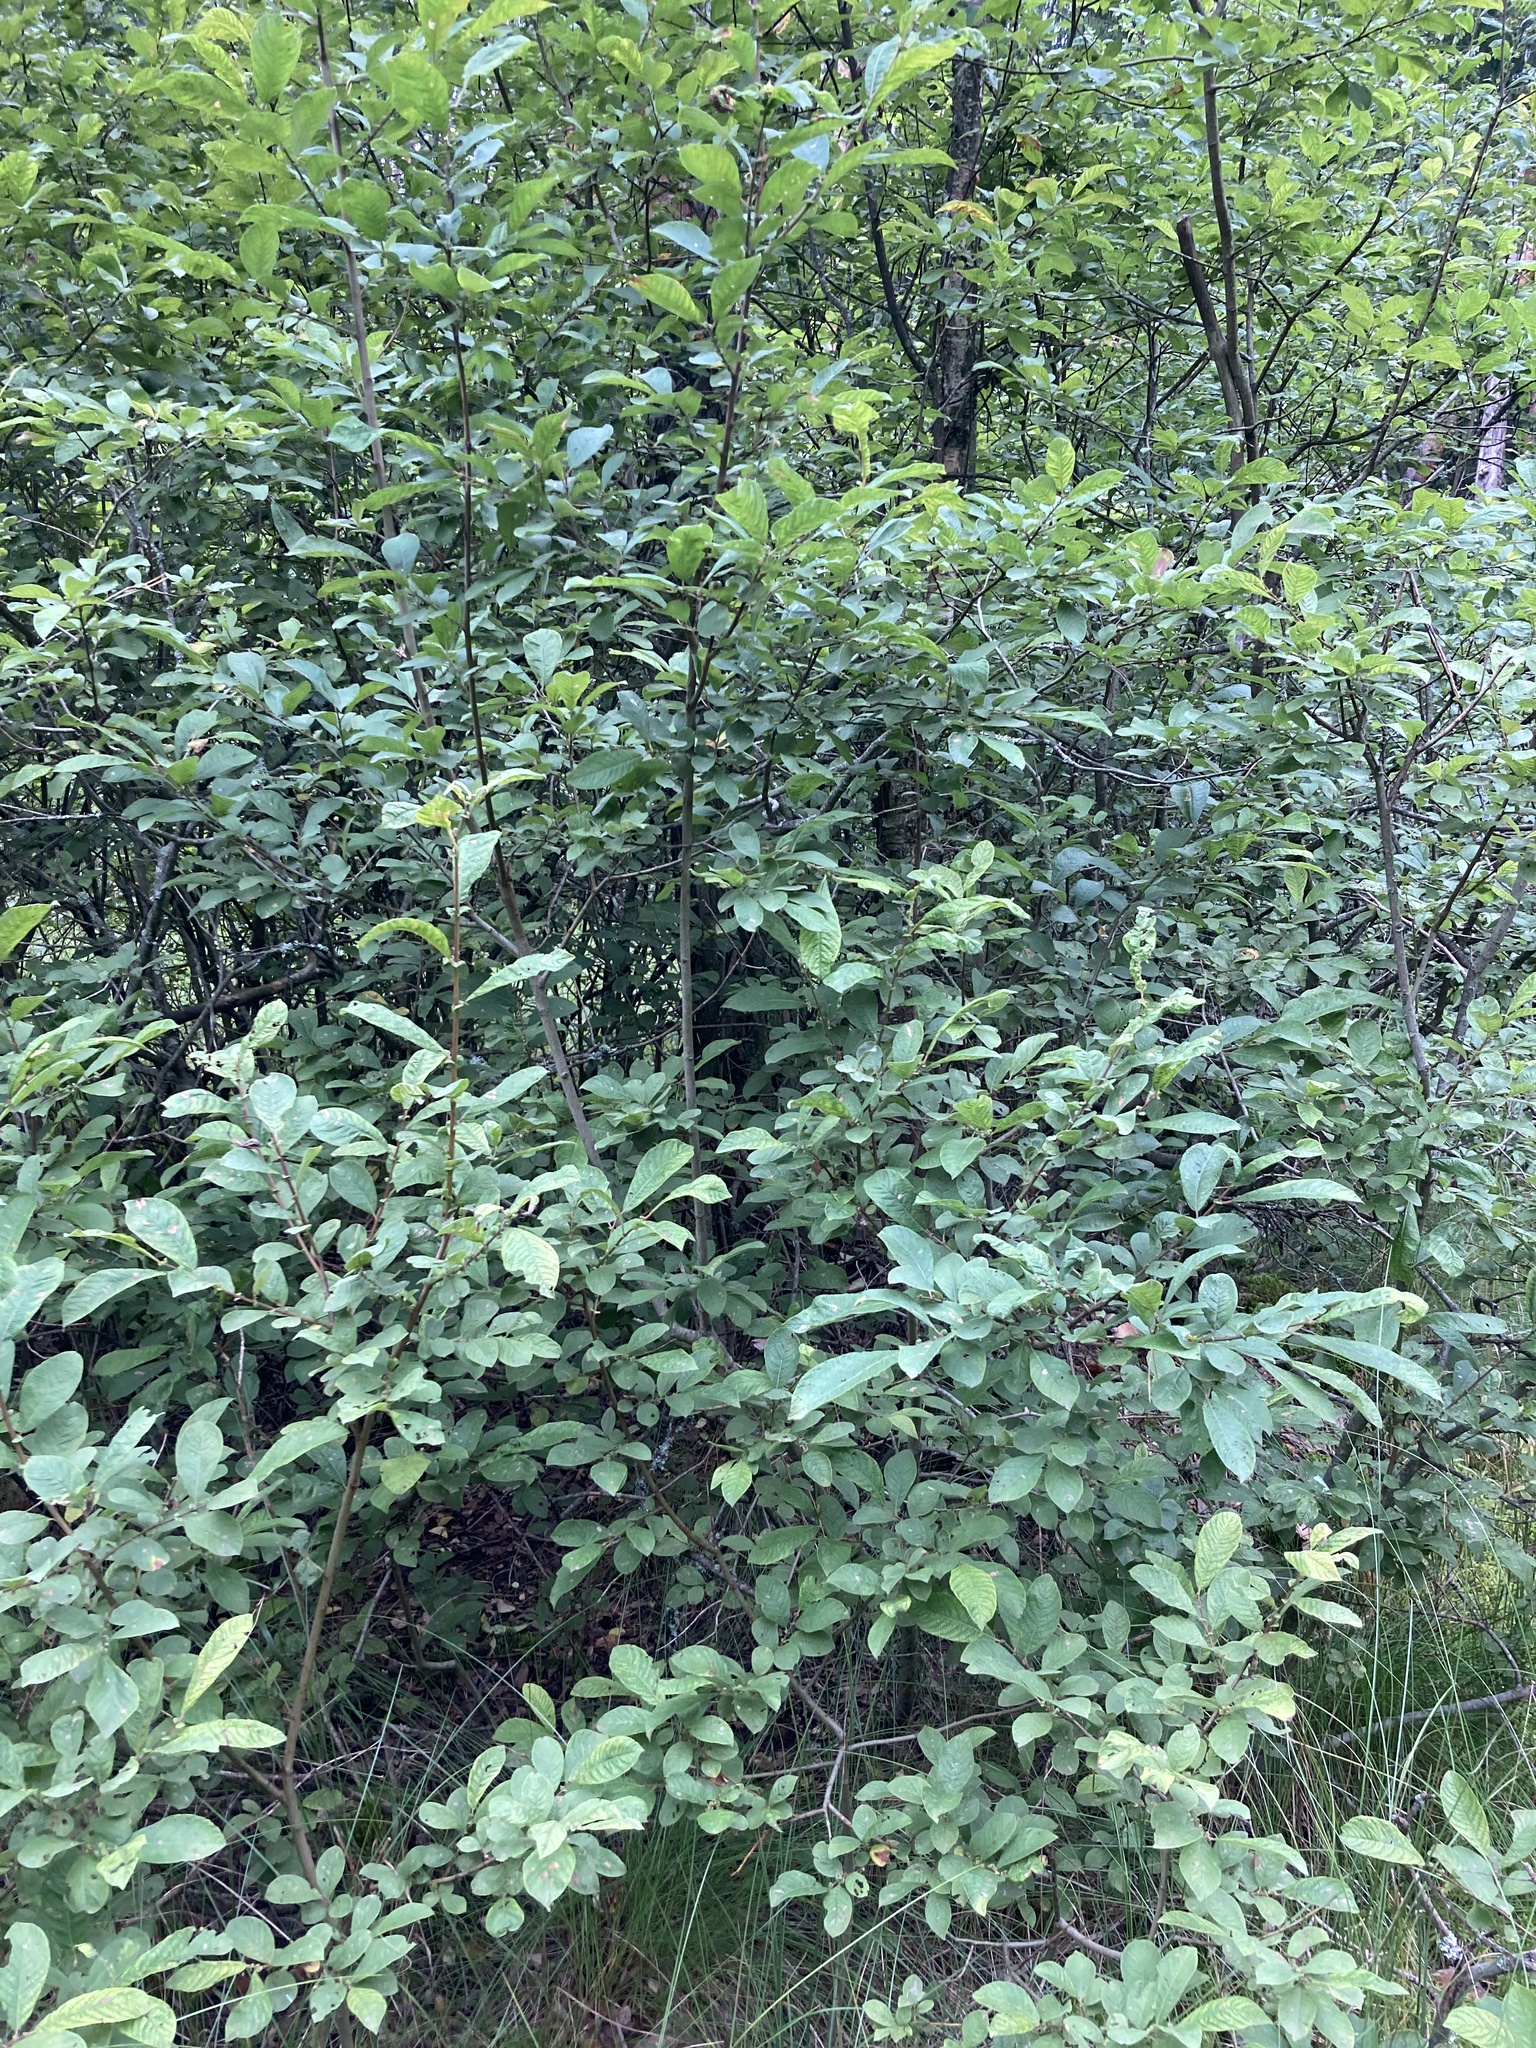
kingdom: Plantae
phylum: Tracheophyta
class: Magnoliopsida
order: Malpighiales
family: Salicaceae
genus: Salix
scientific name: Salix aurita
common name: Eared willow
